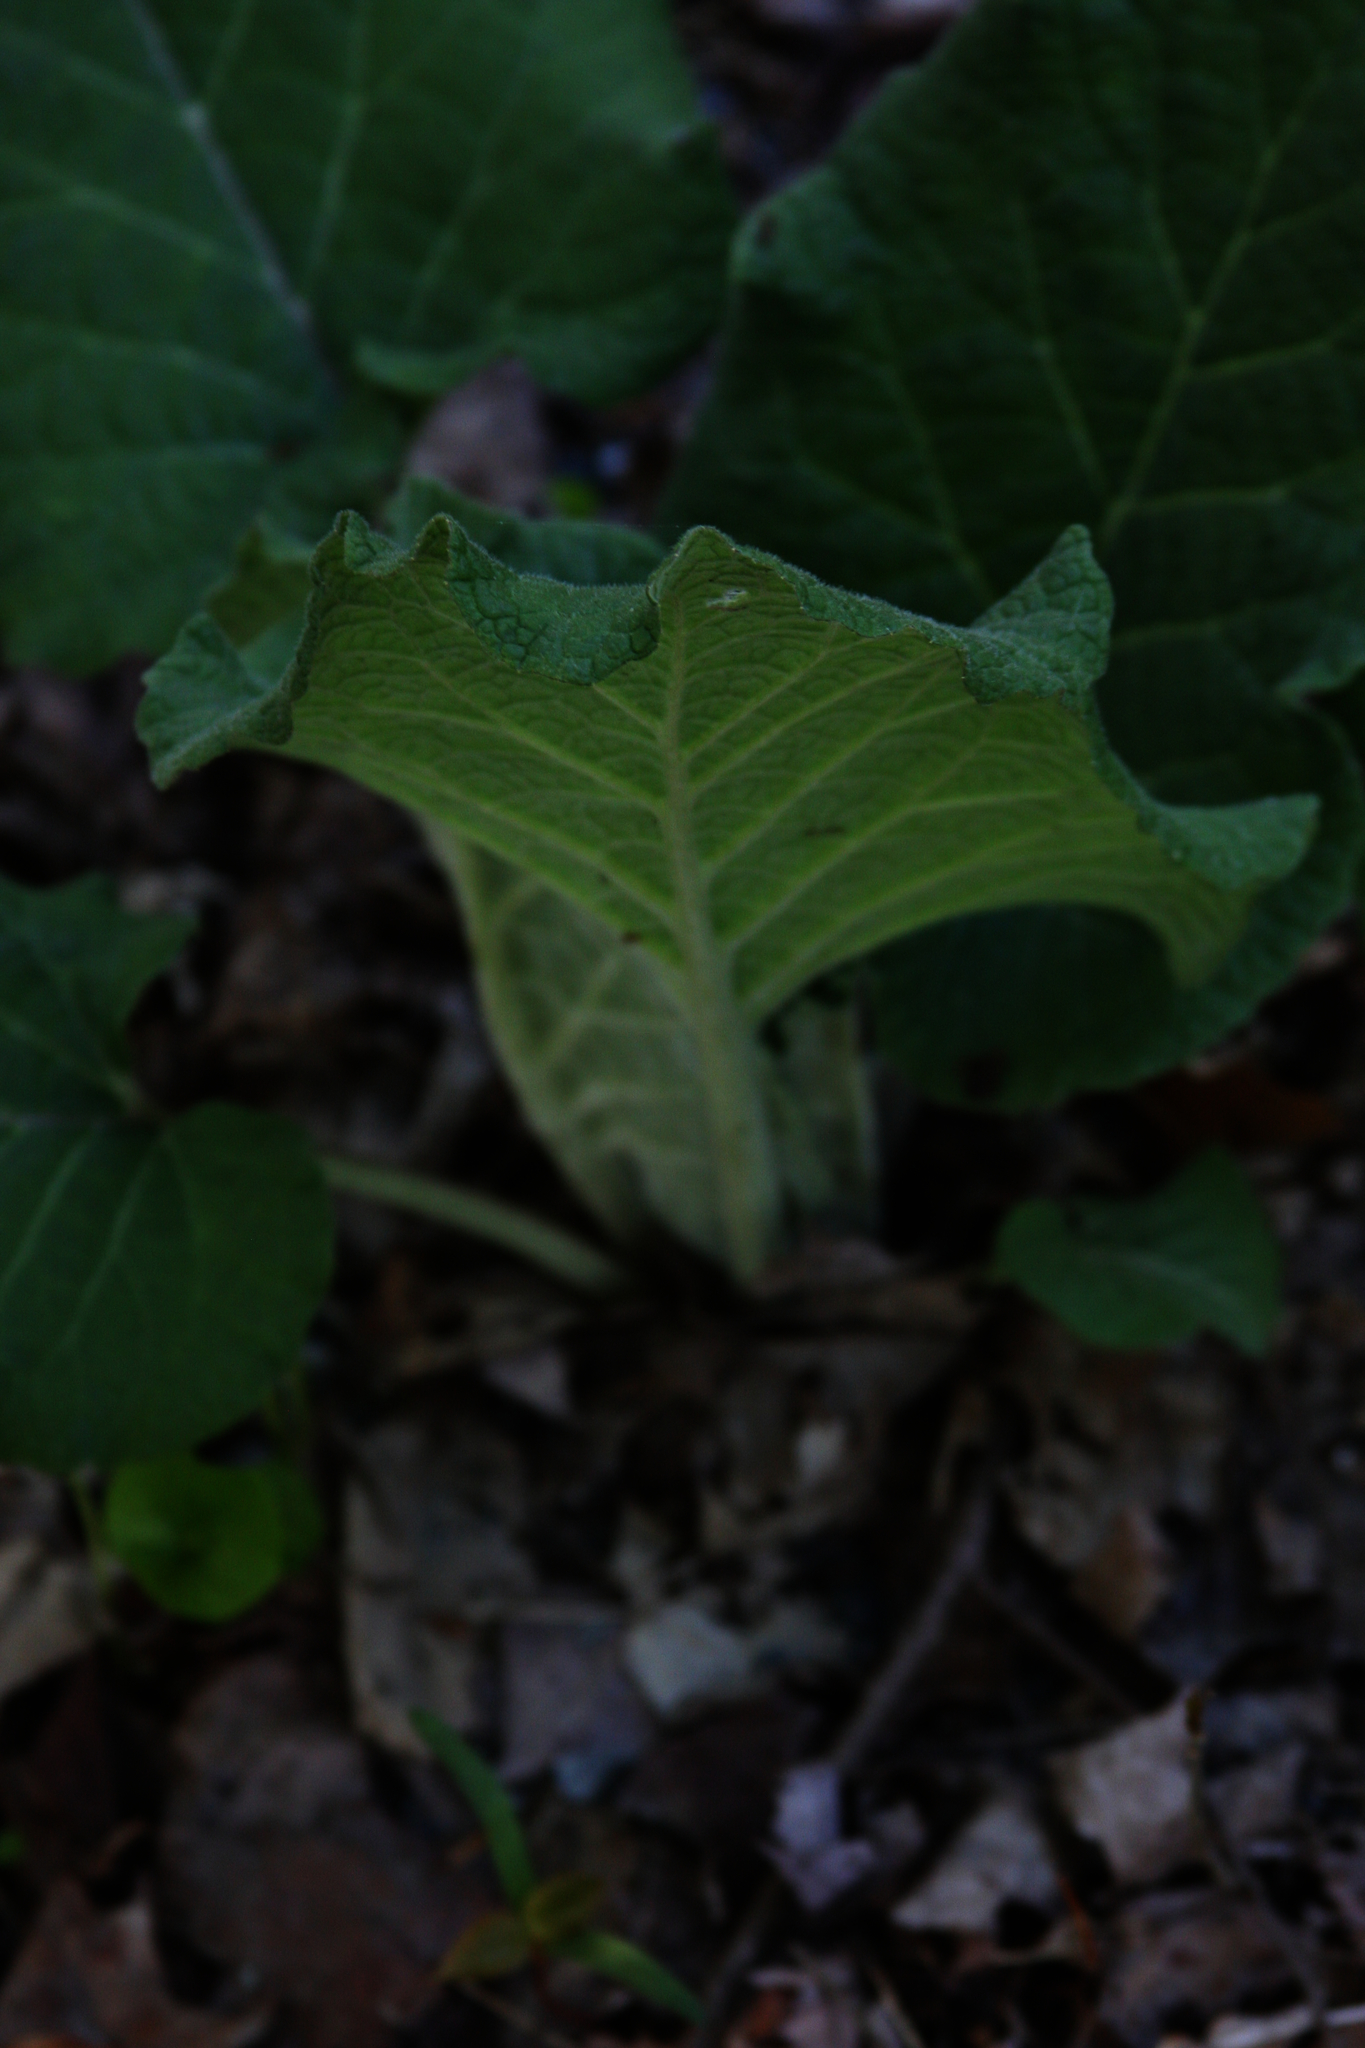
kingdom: Plantae
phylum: Tracheophyta
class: Magnoliopsida
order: Asterales
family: Asteraceae
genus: Arctium
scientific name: Arctium
